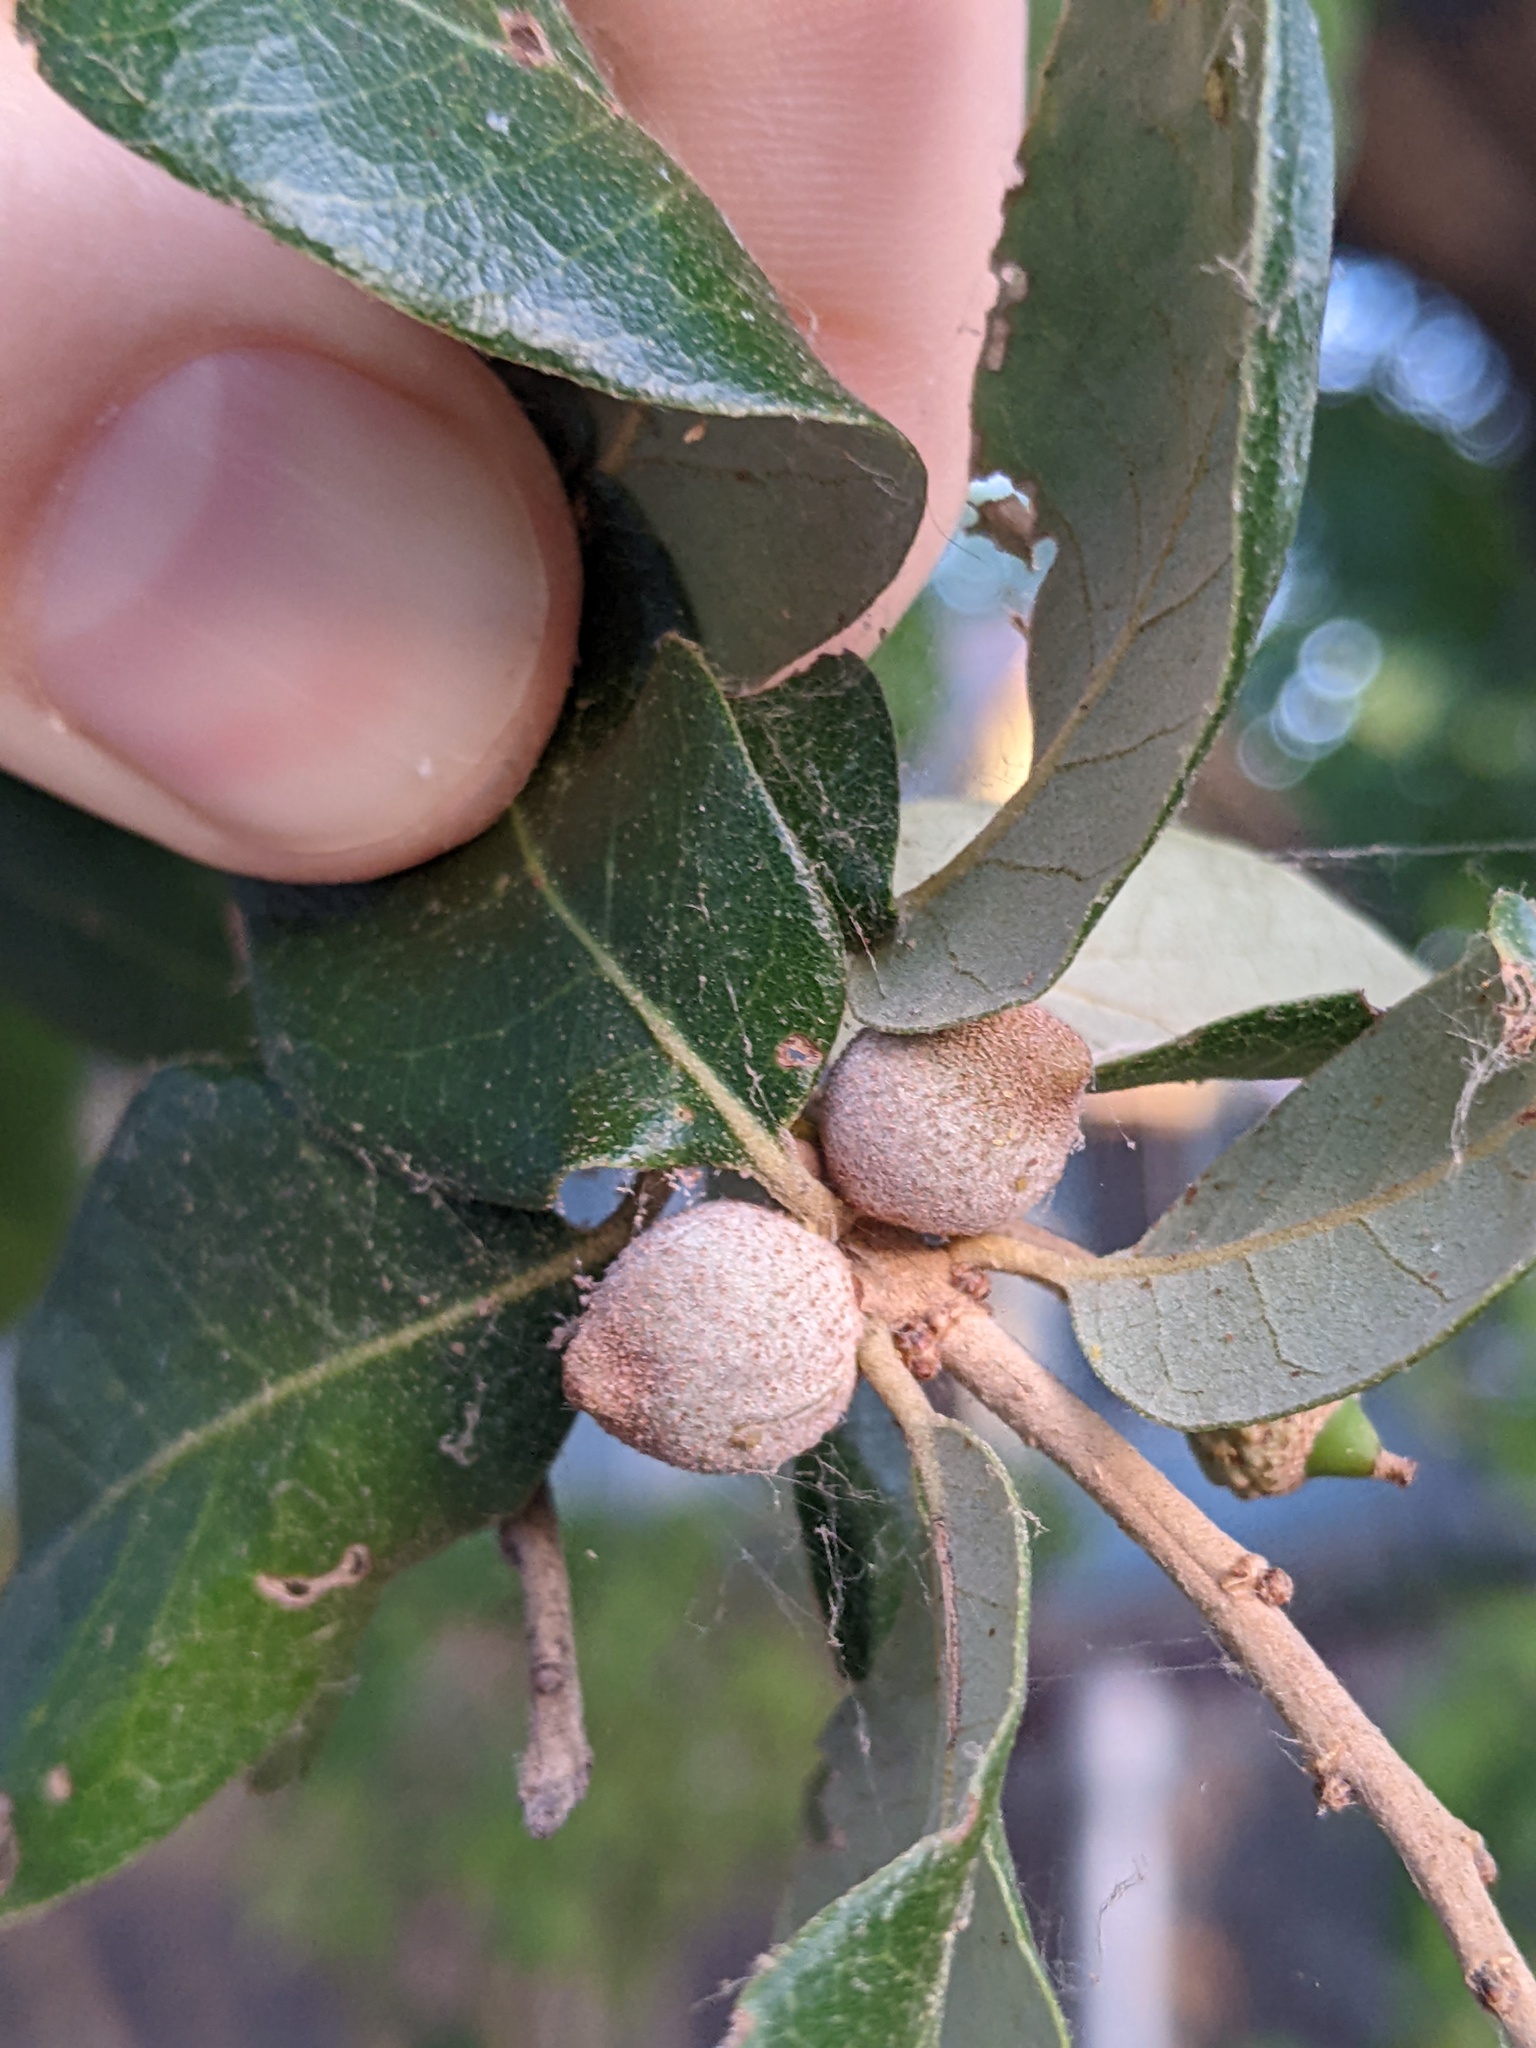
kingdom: Animalia
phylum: Arthropoda
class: Insecta
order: Hymenoptera
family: Cynipidae
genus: Disholcaspis
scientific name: Disholcaspis
